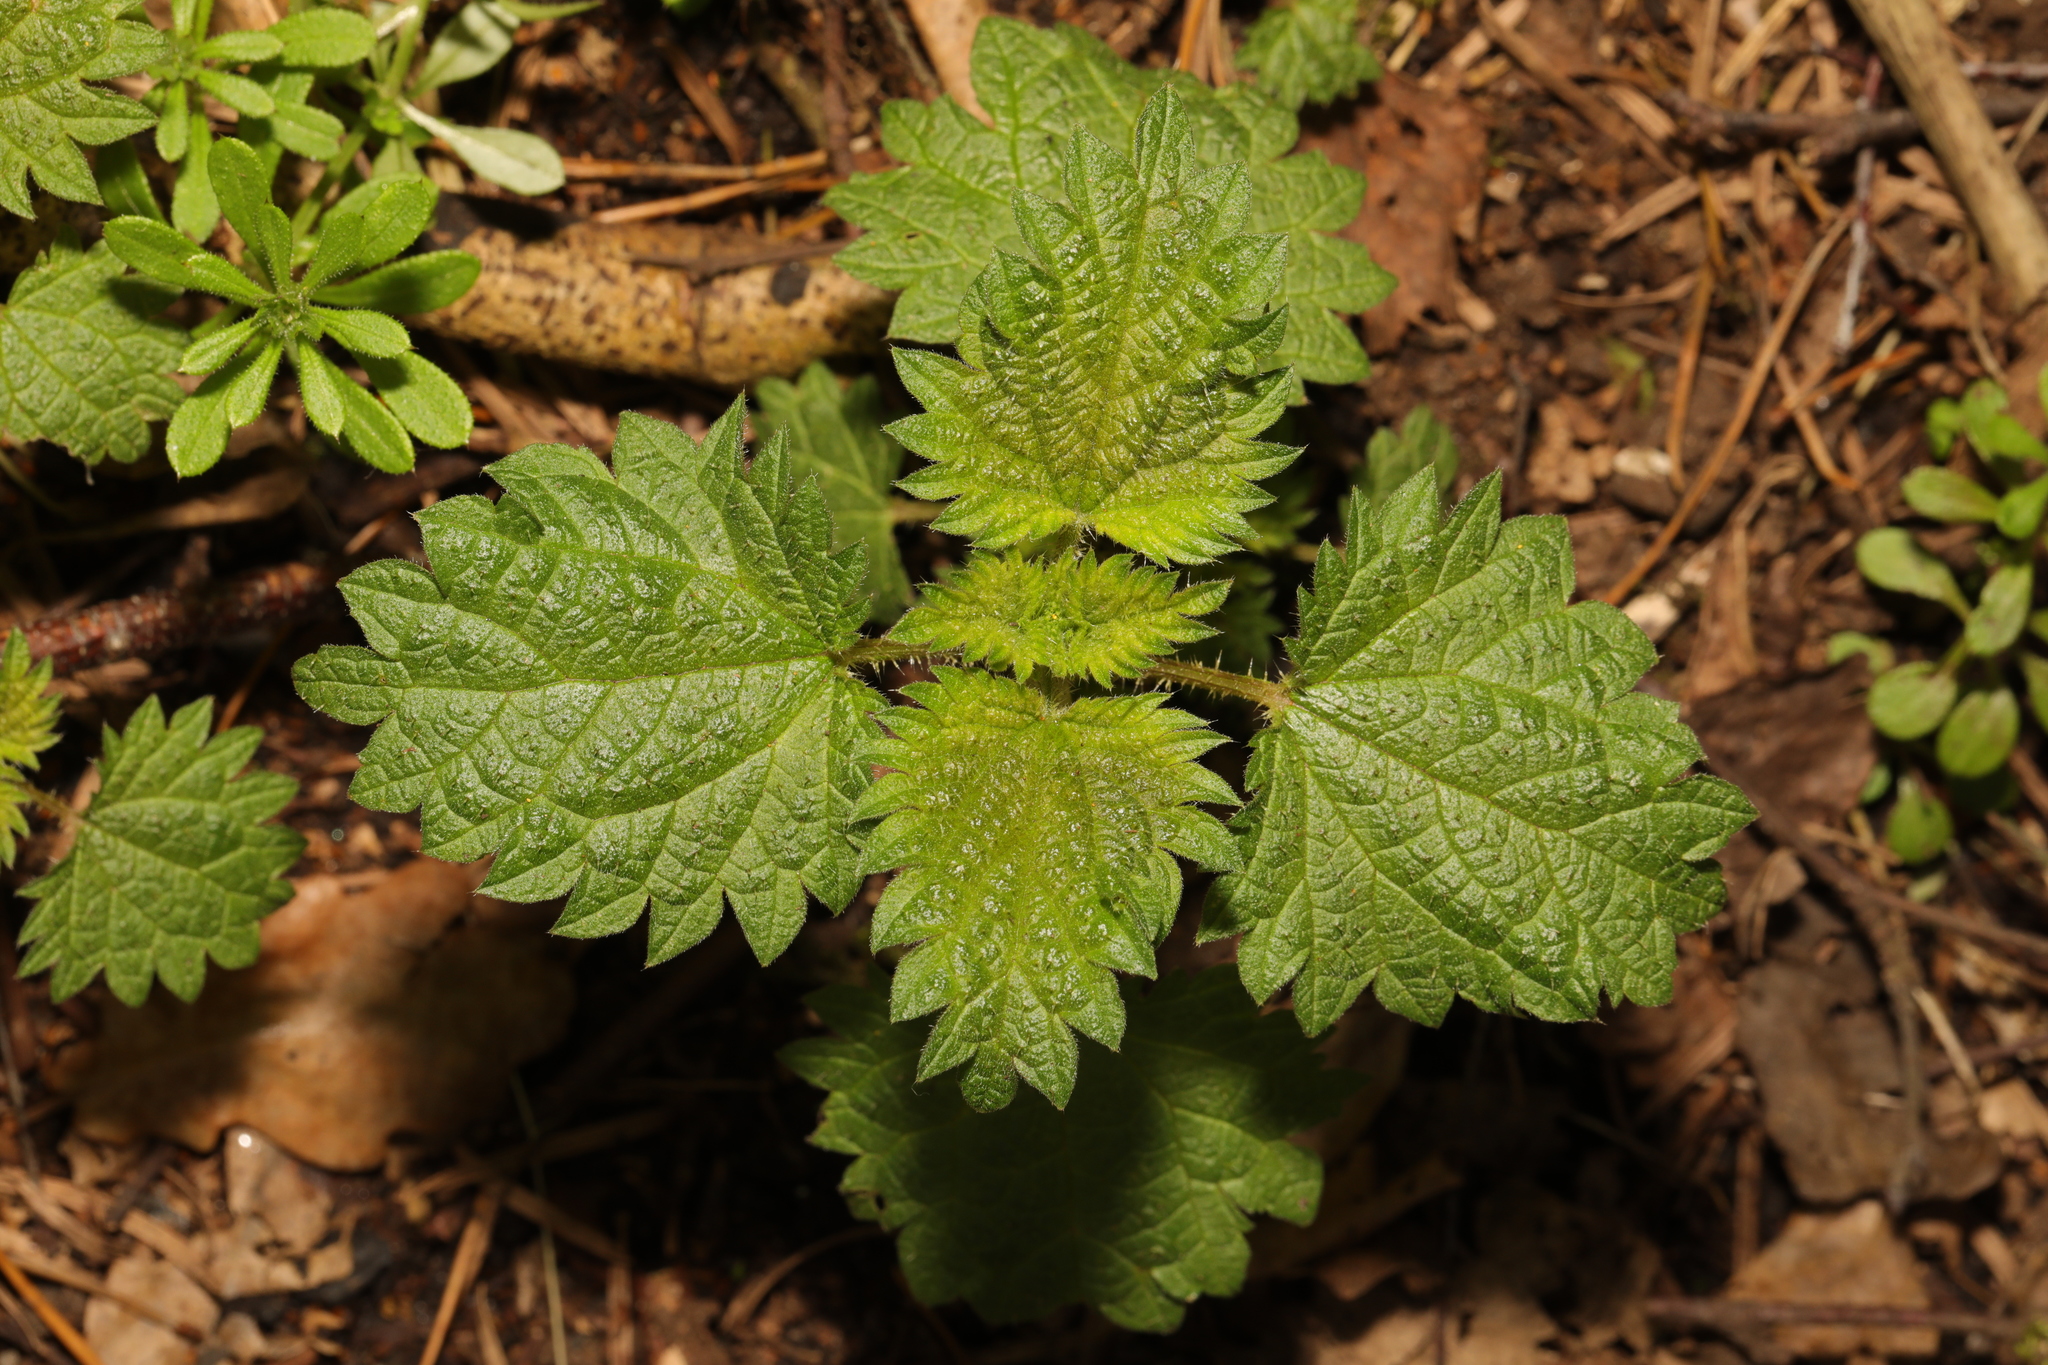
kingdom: Plantae
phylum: Tracheophyta
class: Magnoliopsida
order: Rosales
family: Urticaceae
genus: Urtica
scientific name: Urtica dioica
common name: Common nettle
